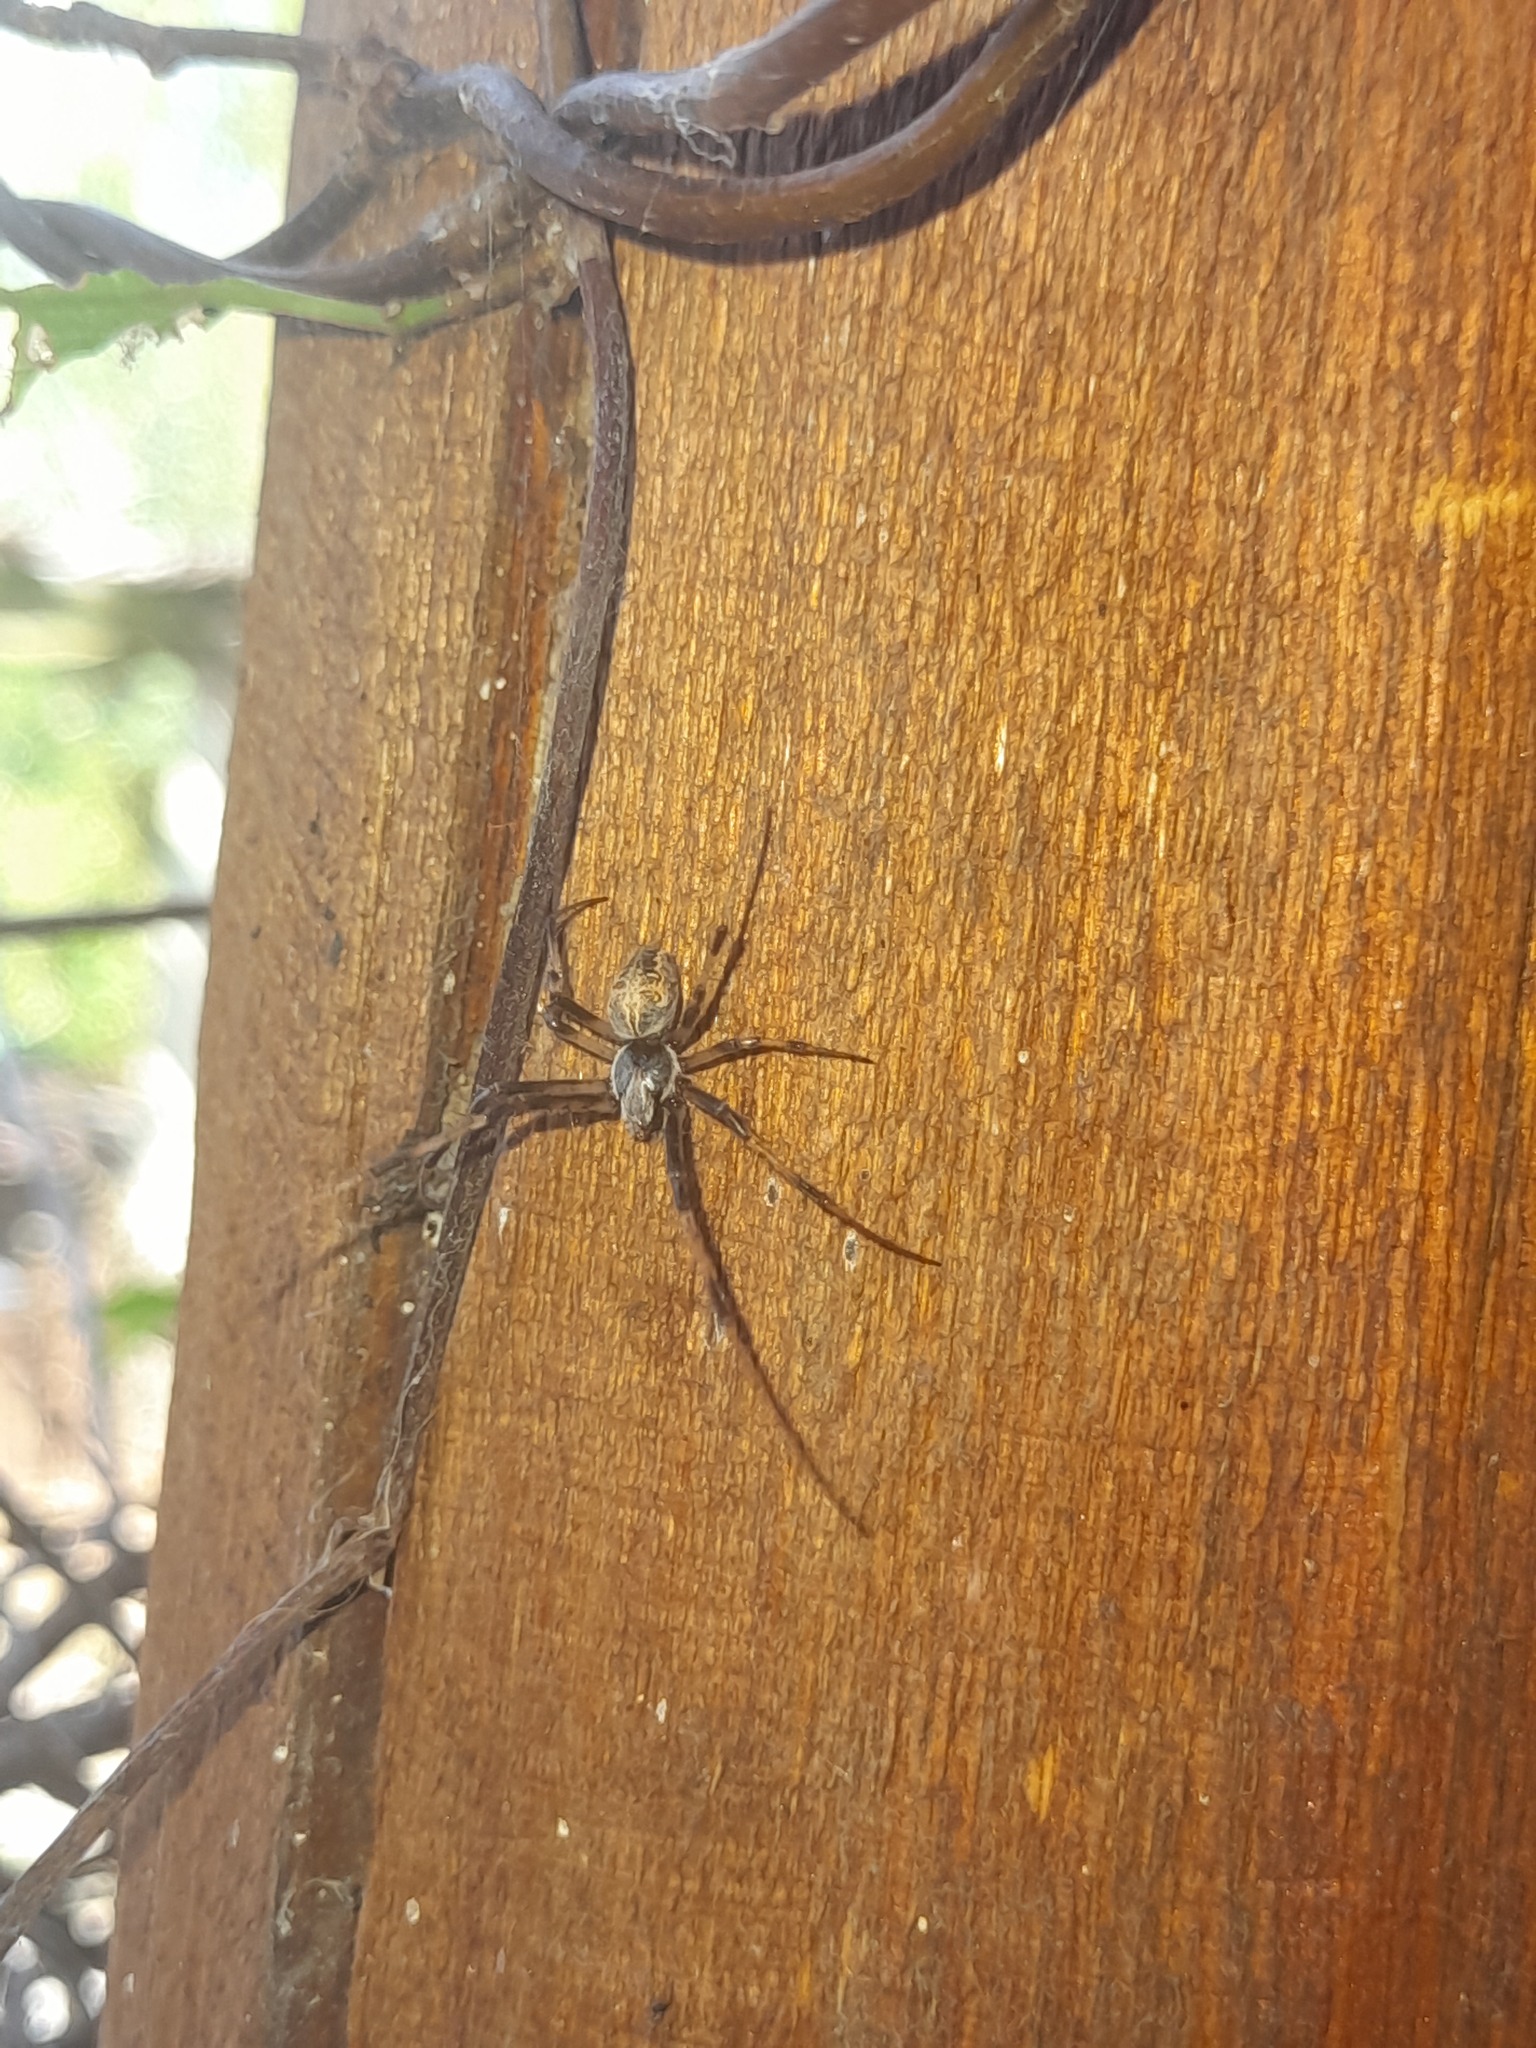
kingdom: Animalia
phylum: Arthropoda
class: Arachnida
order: Araneae
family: Araneidae
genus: Metepeira
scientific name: Metepeira
